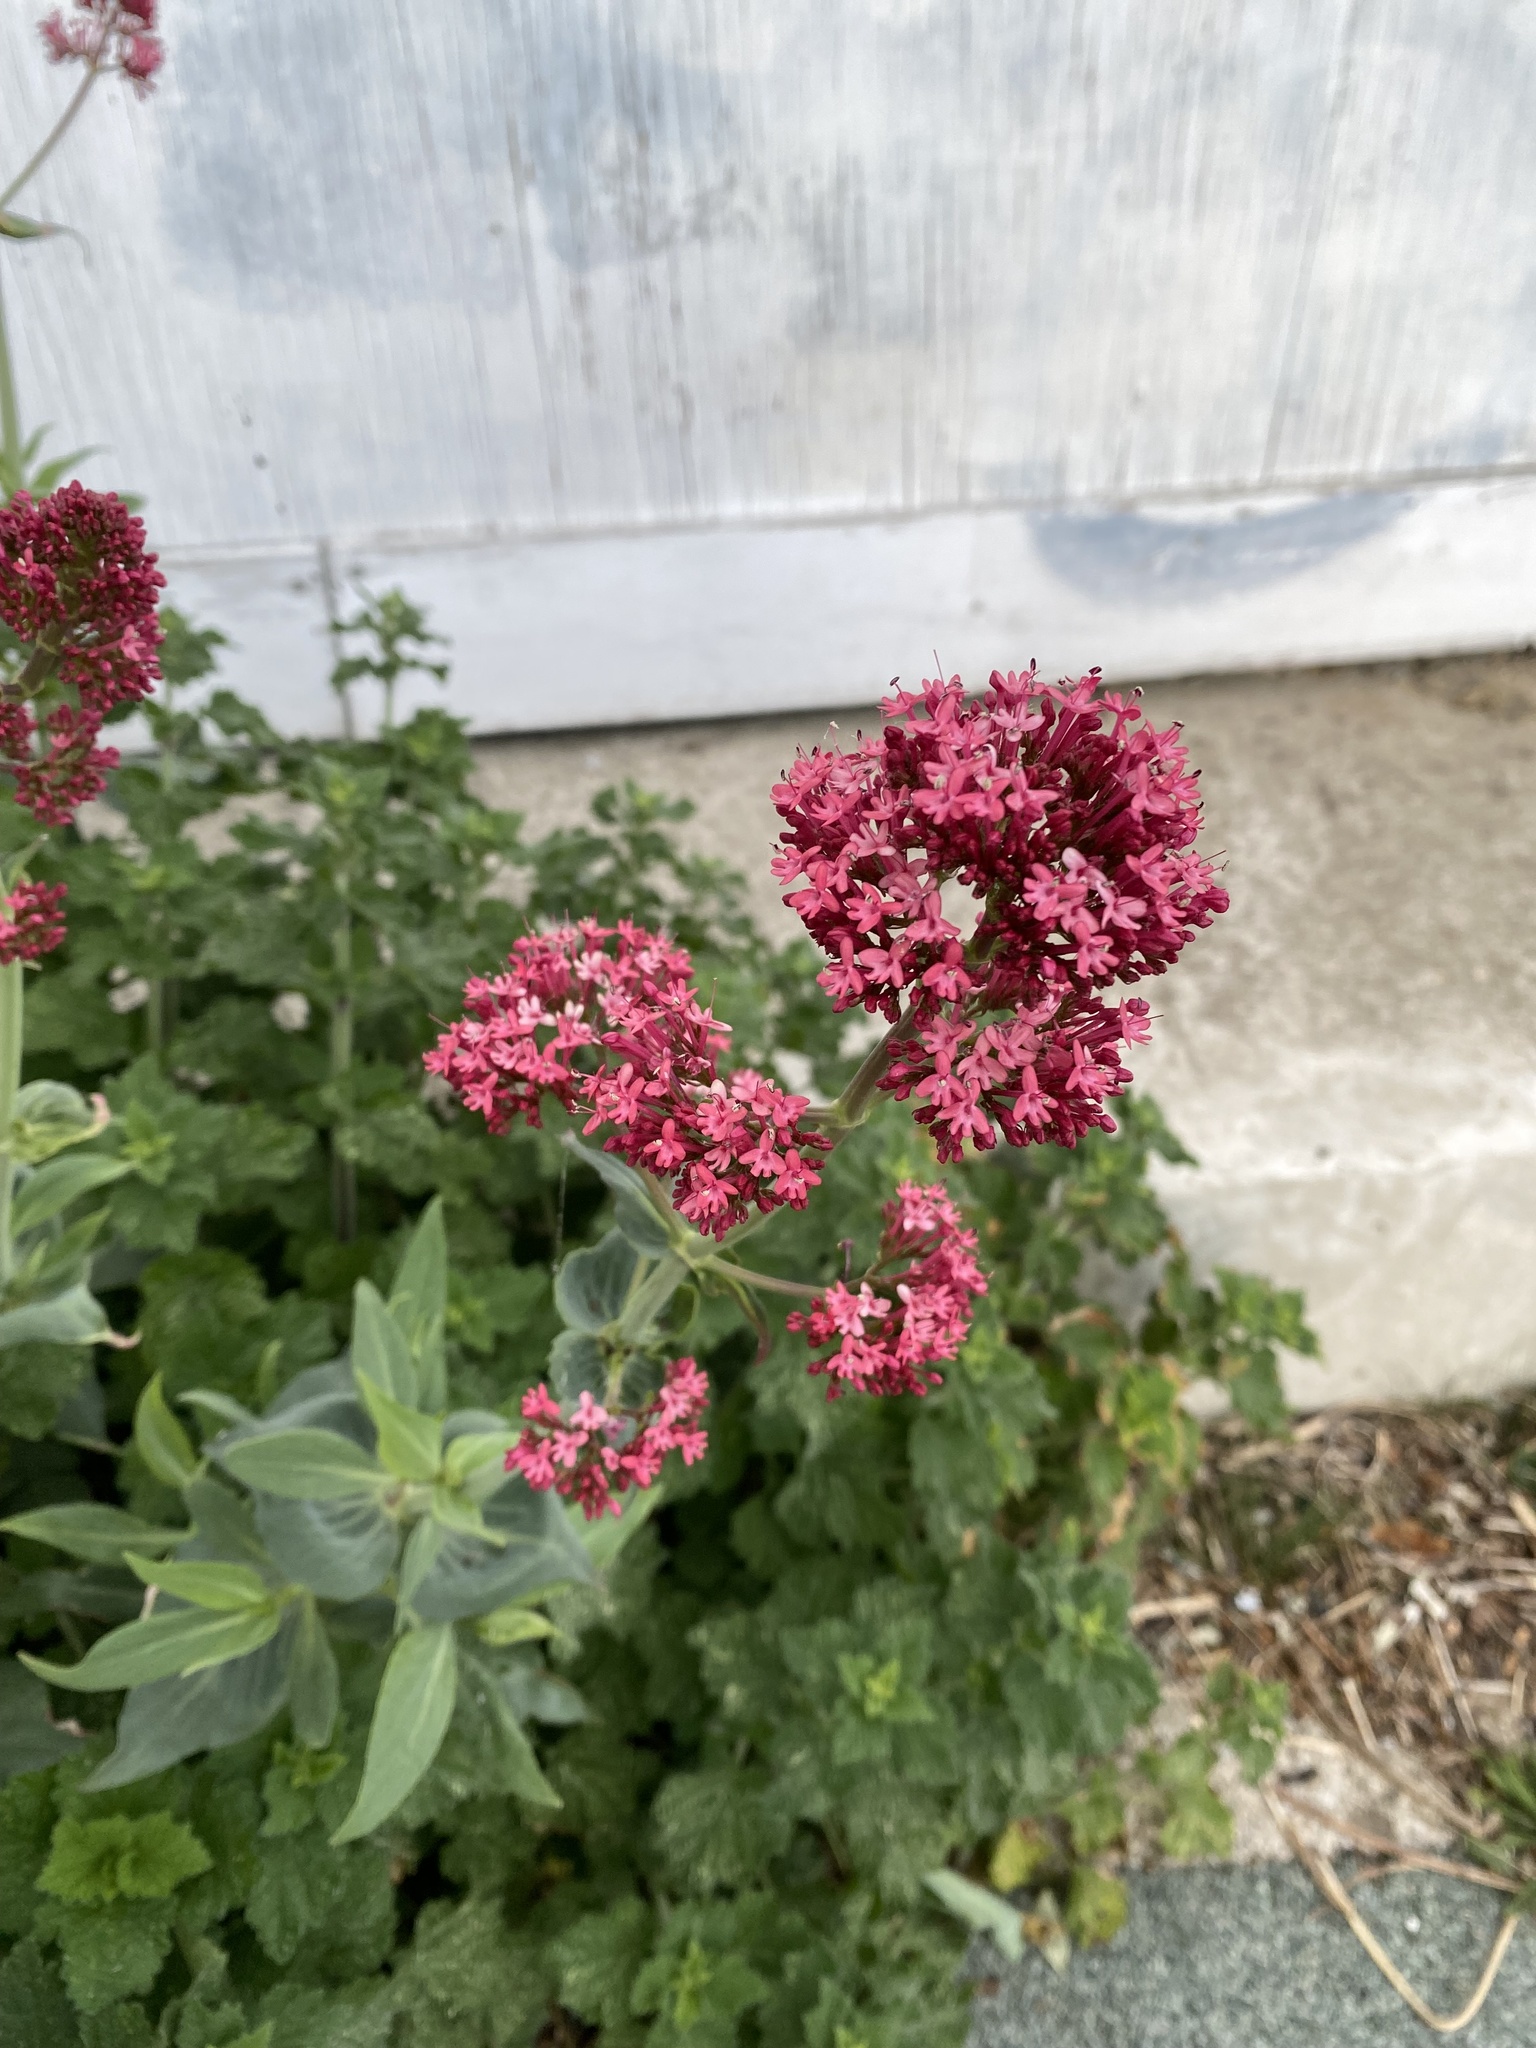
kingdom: Plantae
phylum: Tracheophyta
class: Magnoliopsida
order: Dipsacales
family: Caprifoliaceae
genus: Centranthus
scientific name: Centranthus ruber
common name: Red valerian
